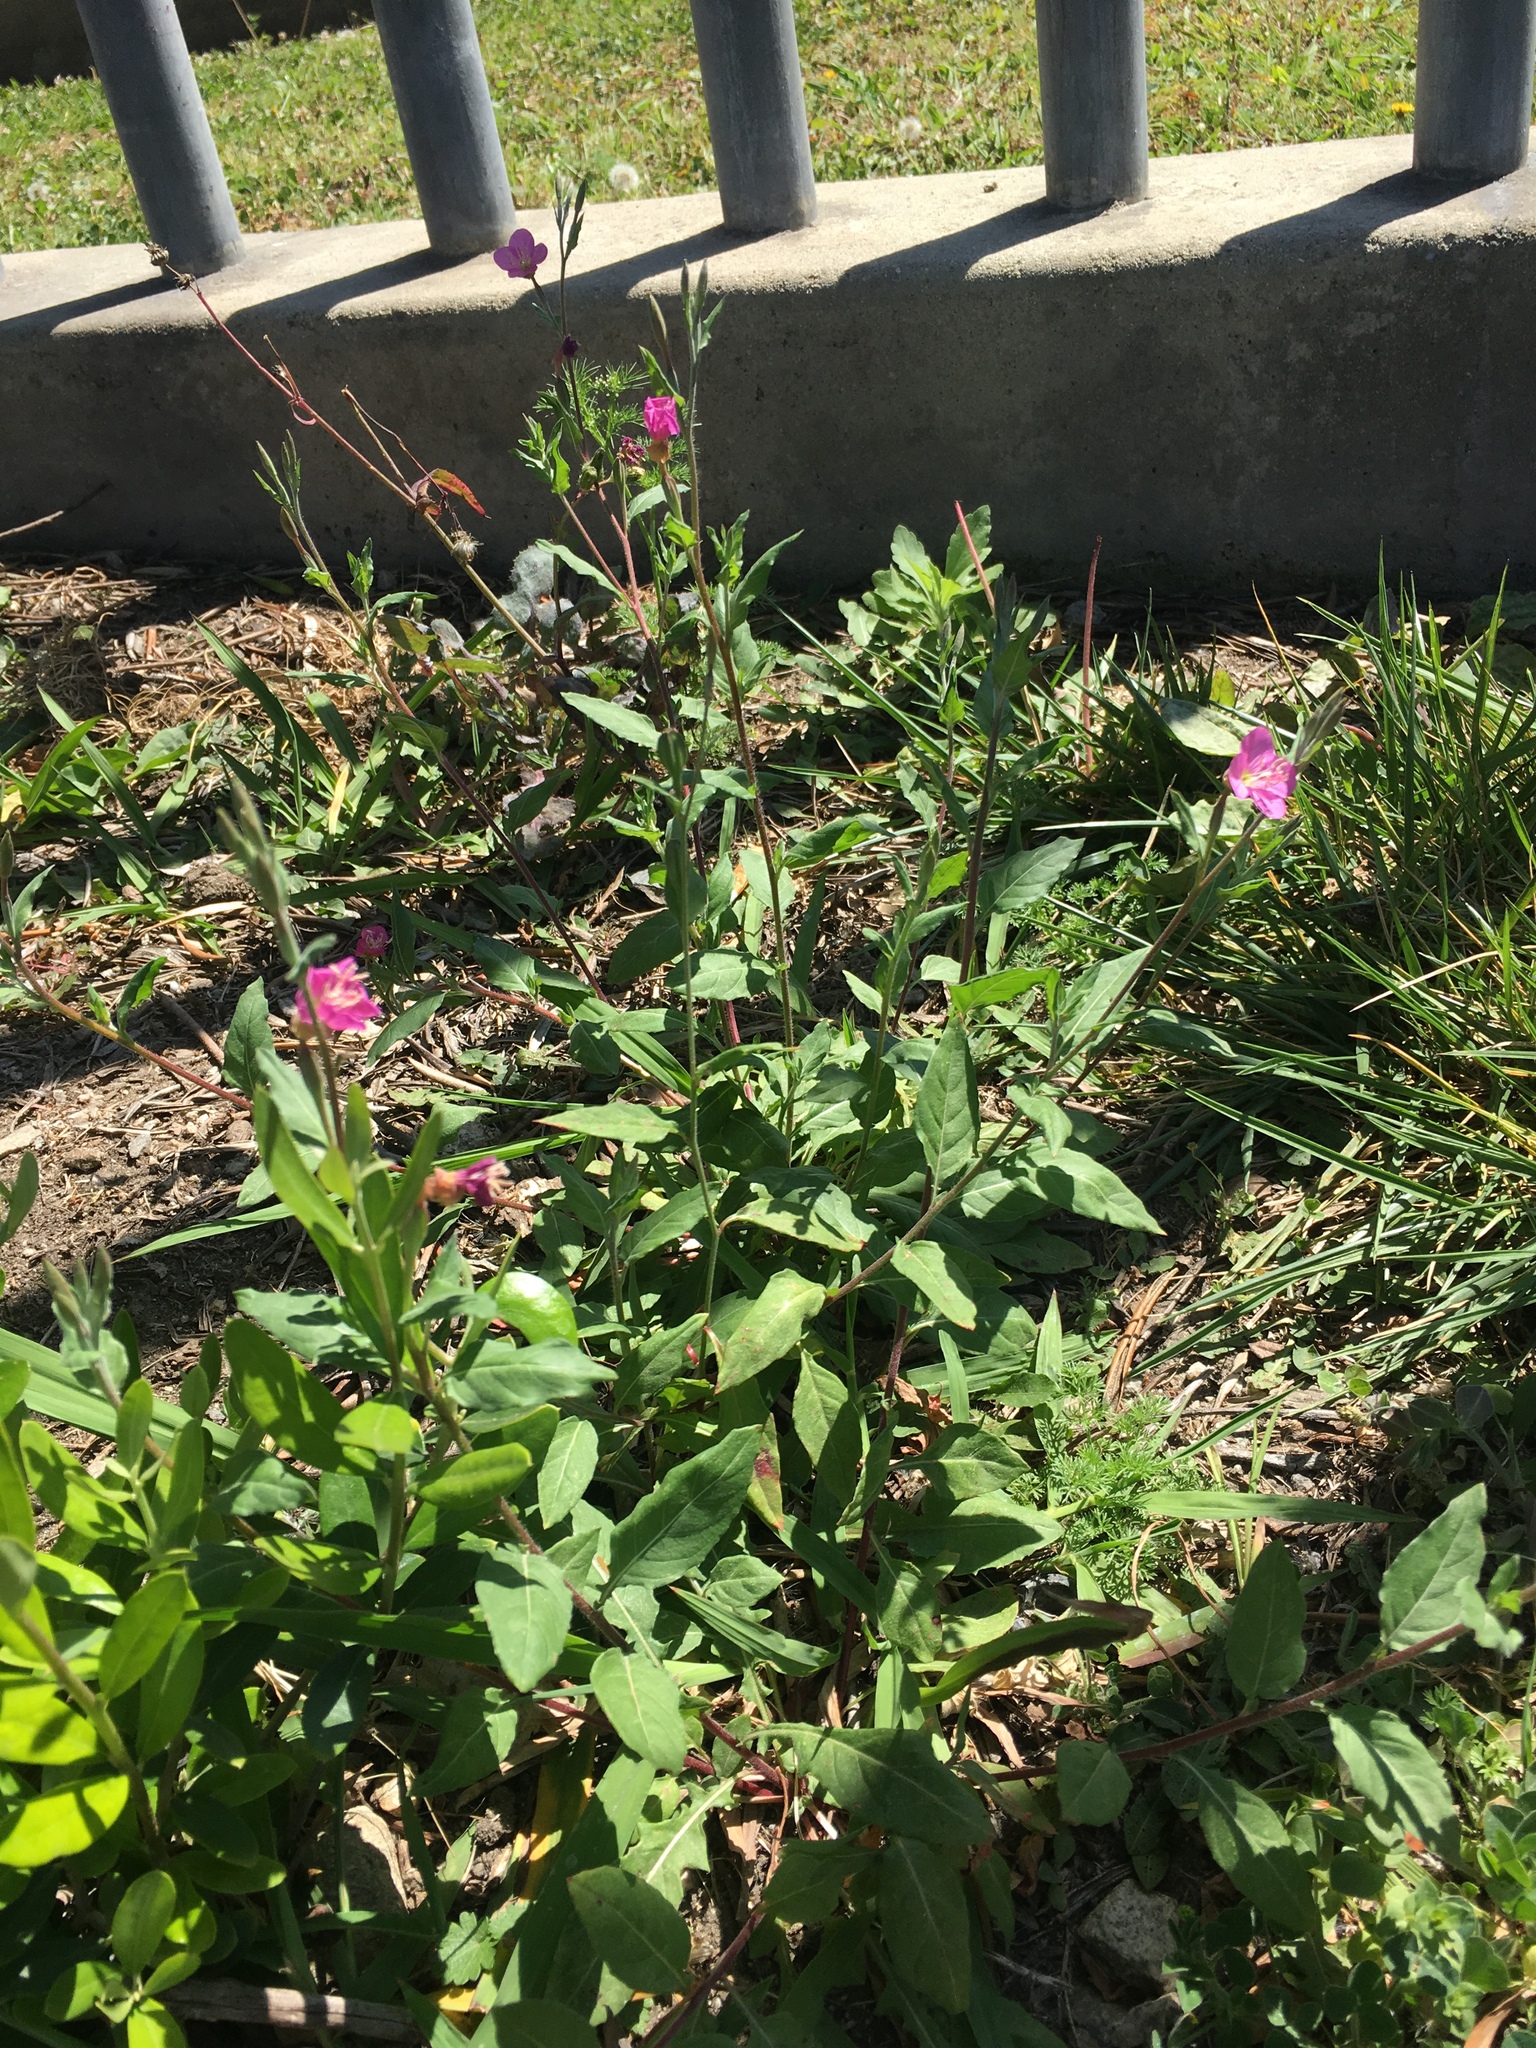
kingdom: Plantae
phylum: Tracheophyta
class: Magnoliopsida
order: Myrtales
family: Onagraceae
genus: Oenothera
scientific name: Oenothera rosea
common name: Rosy evening-primrose
